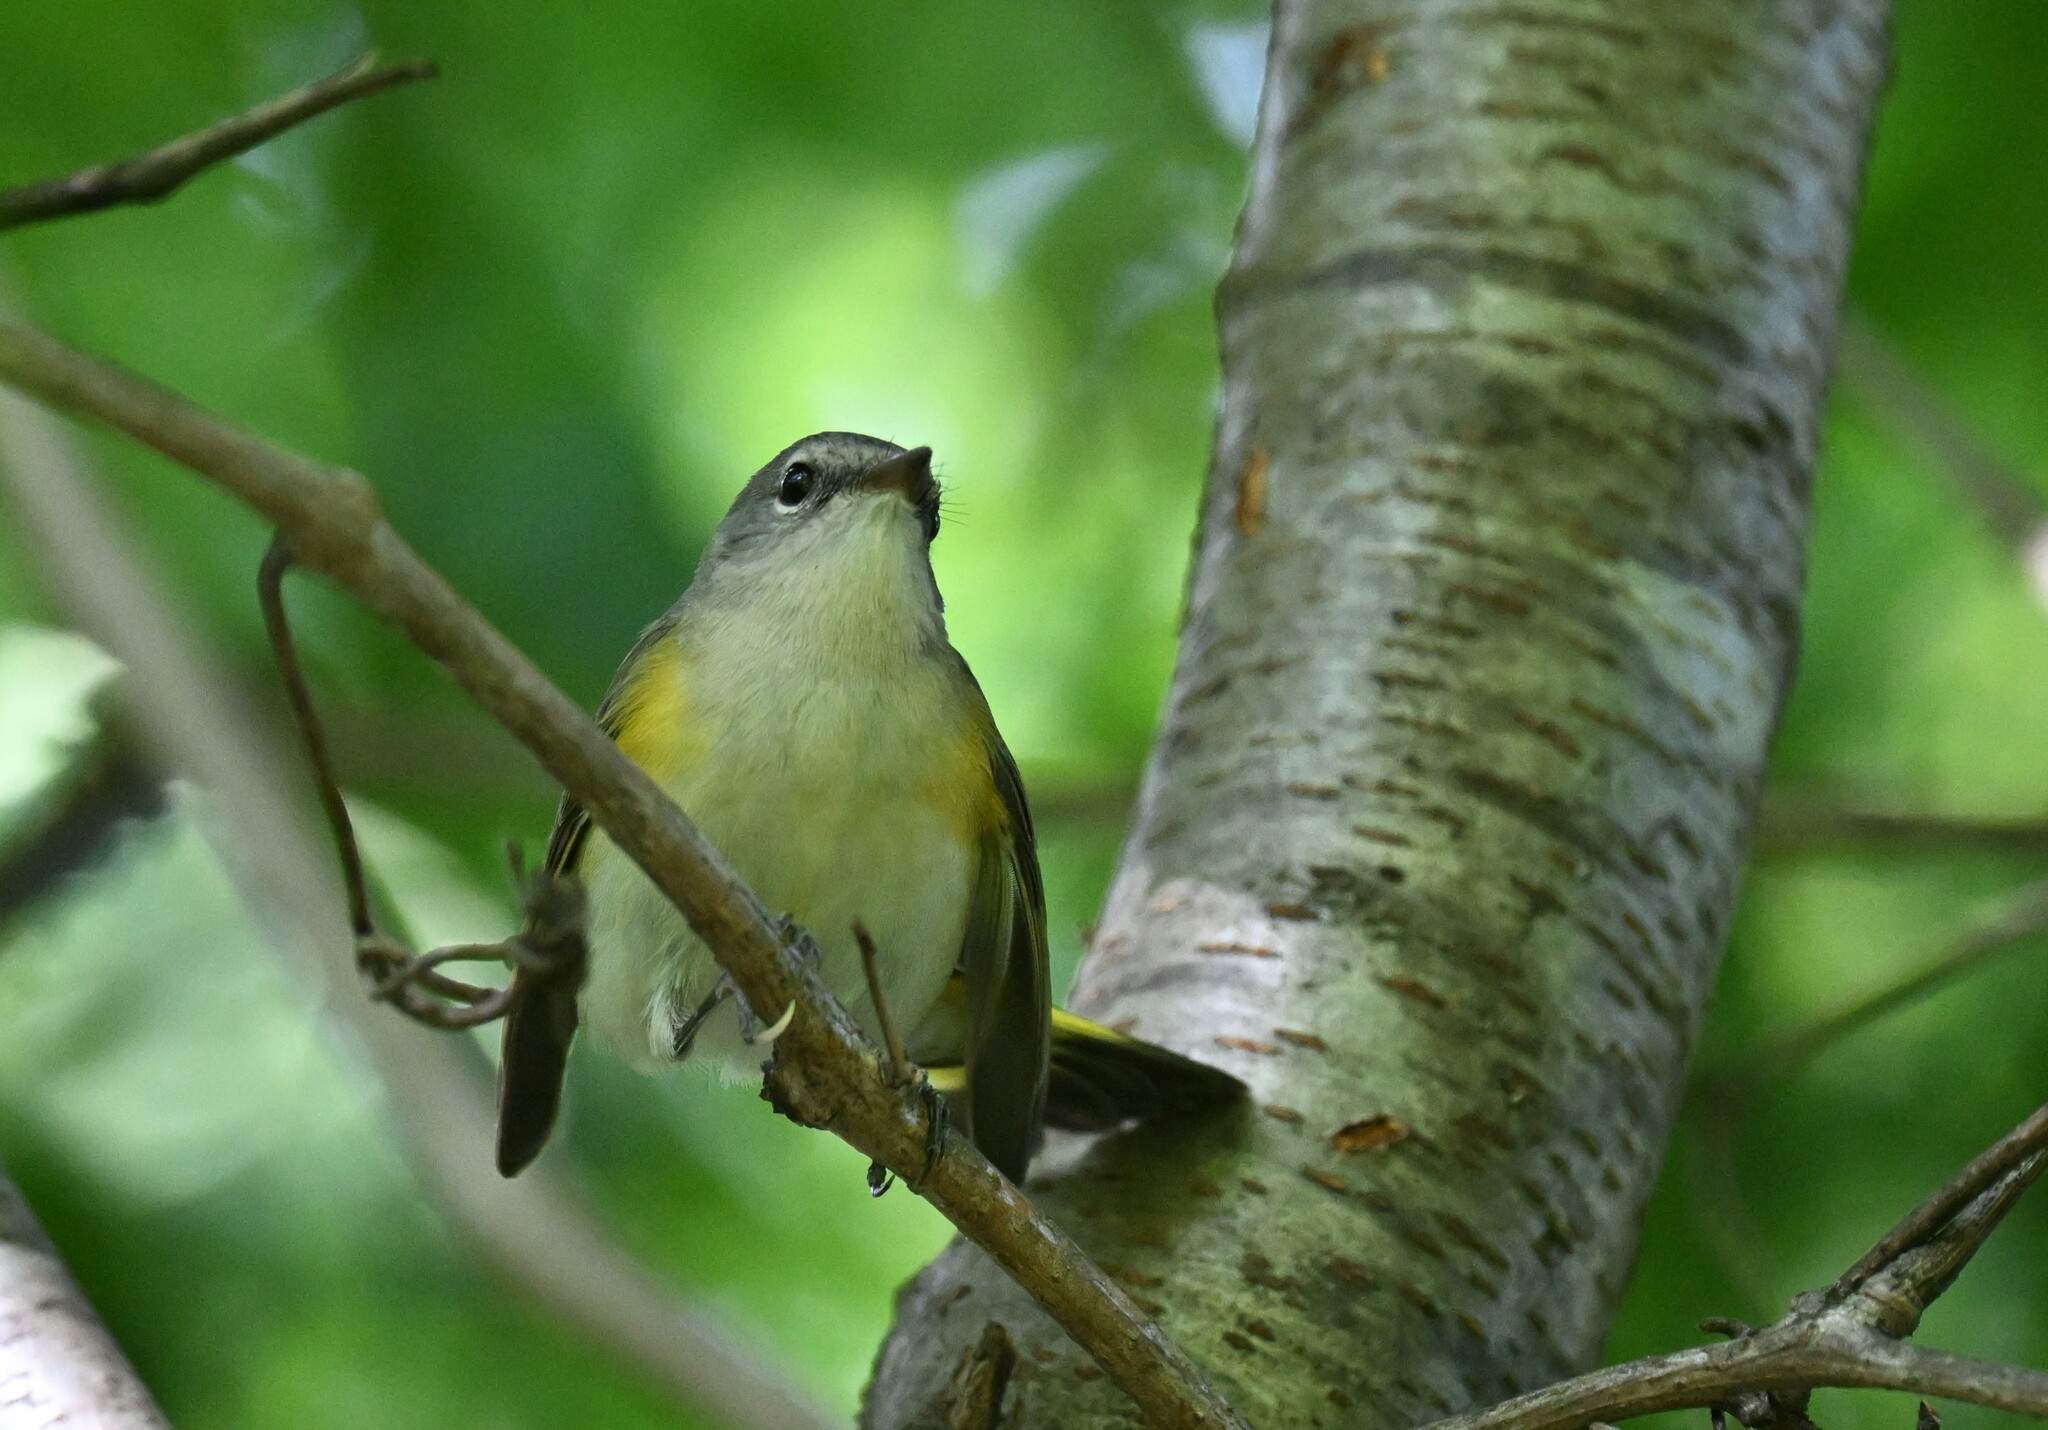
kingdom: Animalia
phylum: Chordata
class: Aves
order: Passeriformes
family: Parulidae
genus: Setophaga
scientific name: Setophaga ruticilla
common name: American redstart
